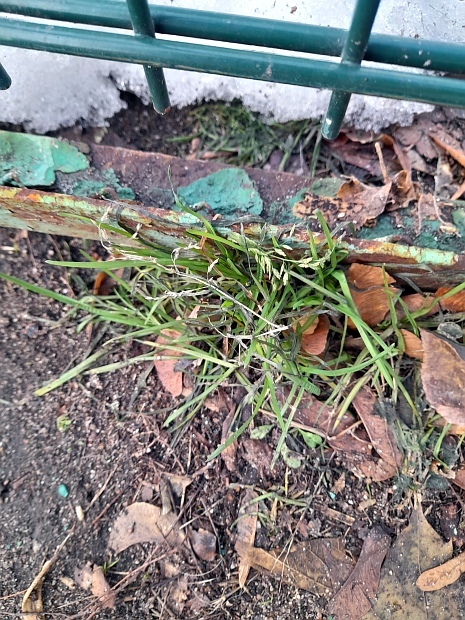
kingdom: Plantae
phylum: Tracheophyta
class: Liliopsida
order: Poales
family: Poaceae
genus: Poa
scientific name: Poa annua
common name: Annual bluegrass
